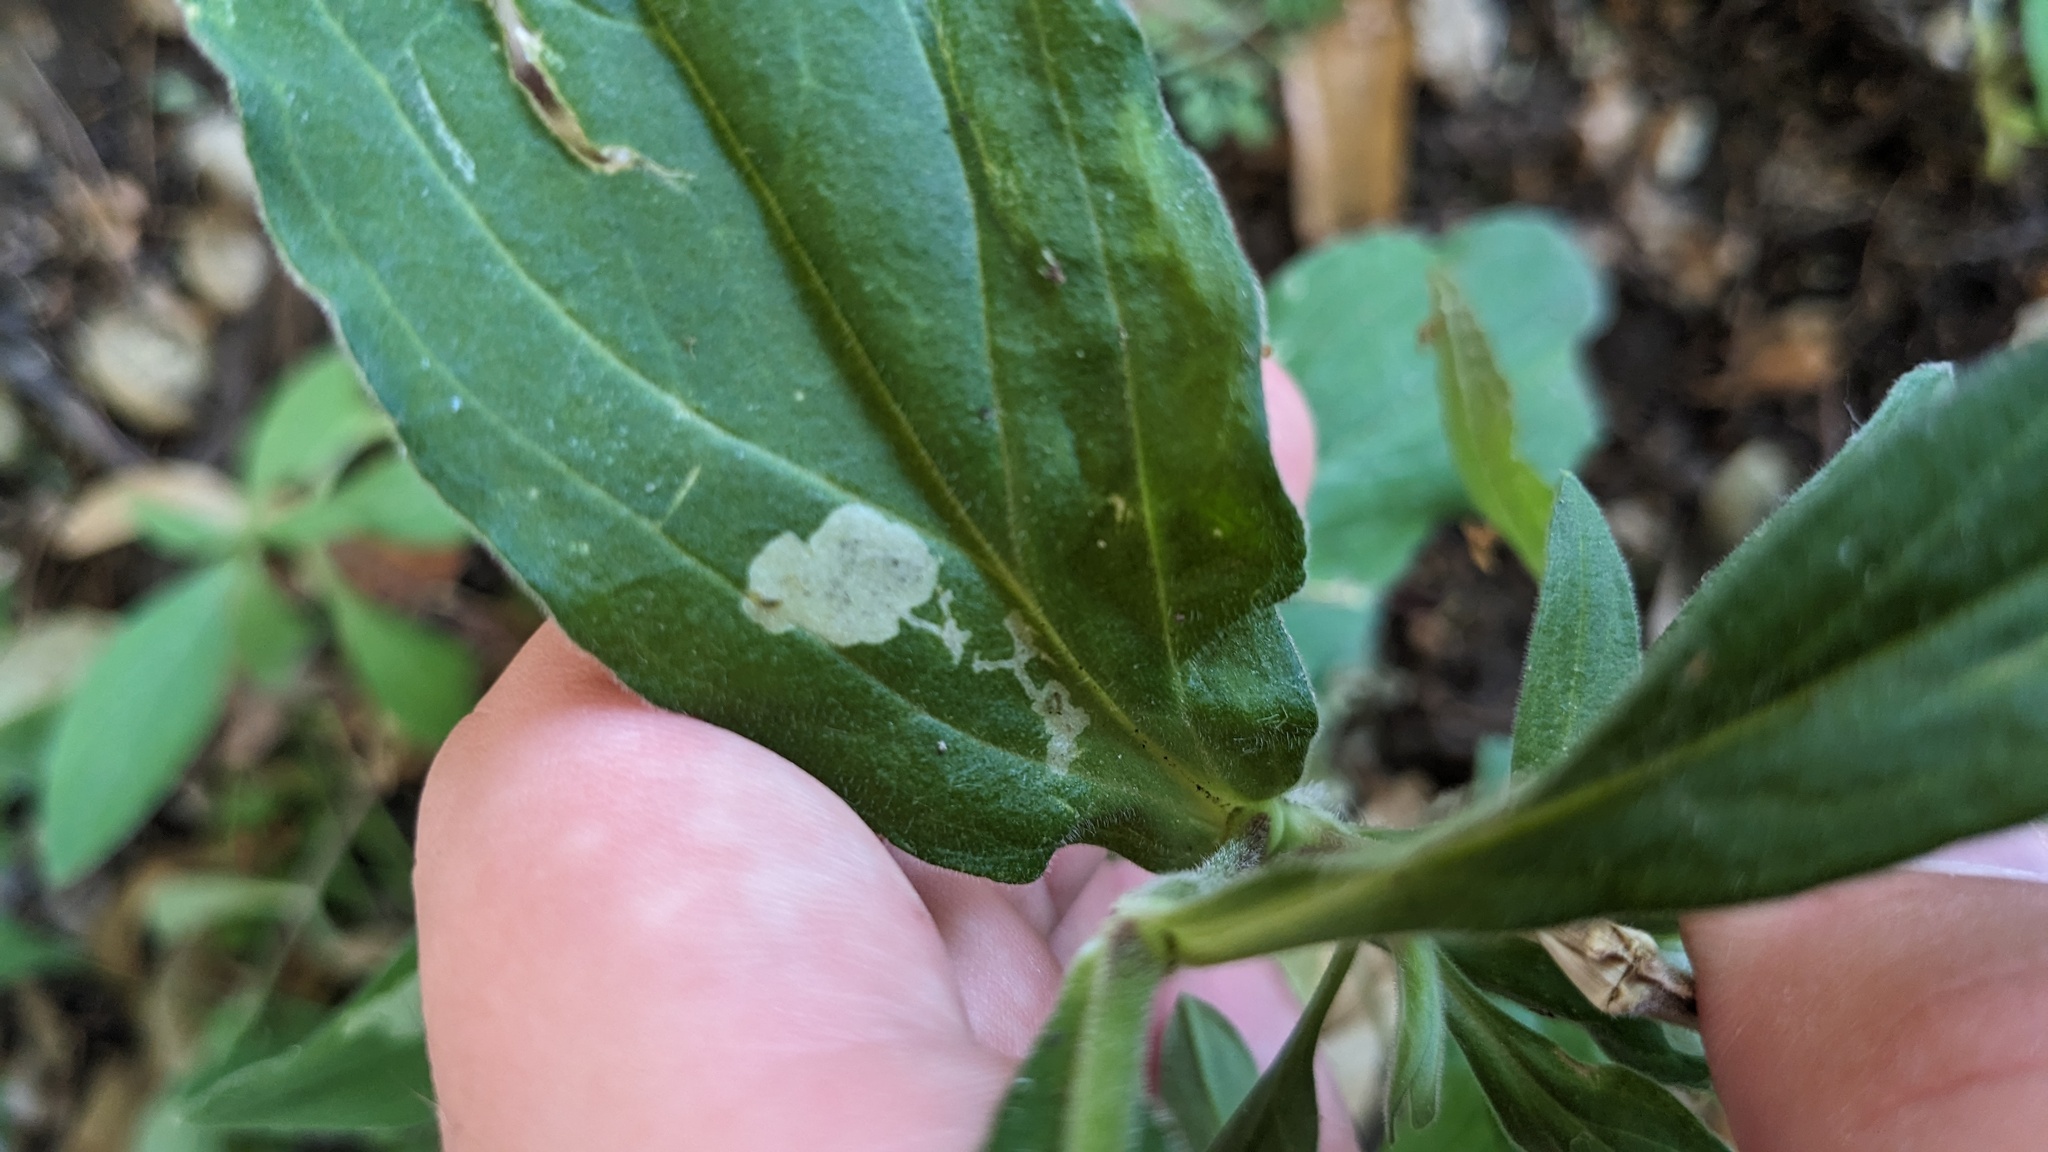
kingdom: Animalia
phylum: Arthropoda
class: Insecta
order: Diptera
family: Agromyzidae
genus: Amauromyza
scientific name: Amauromyza flavifrons
